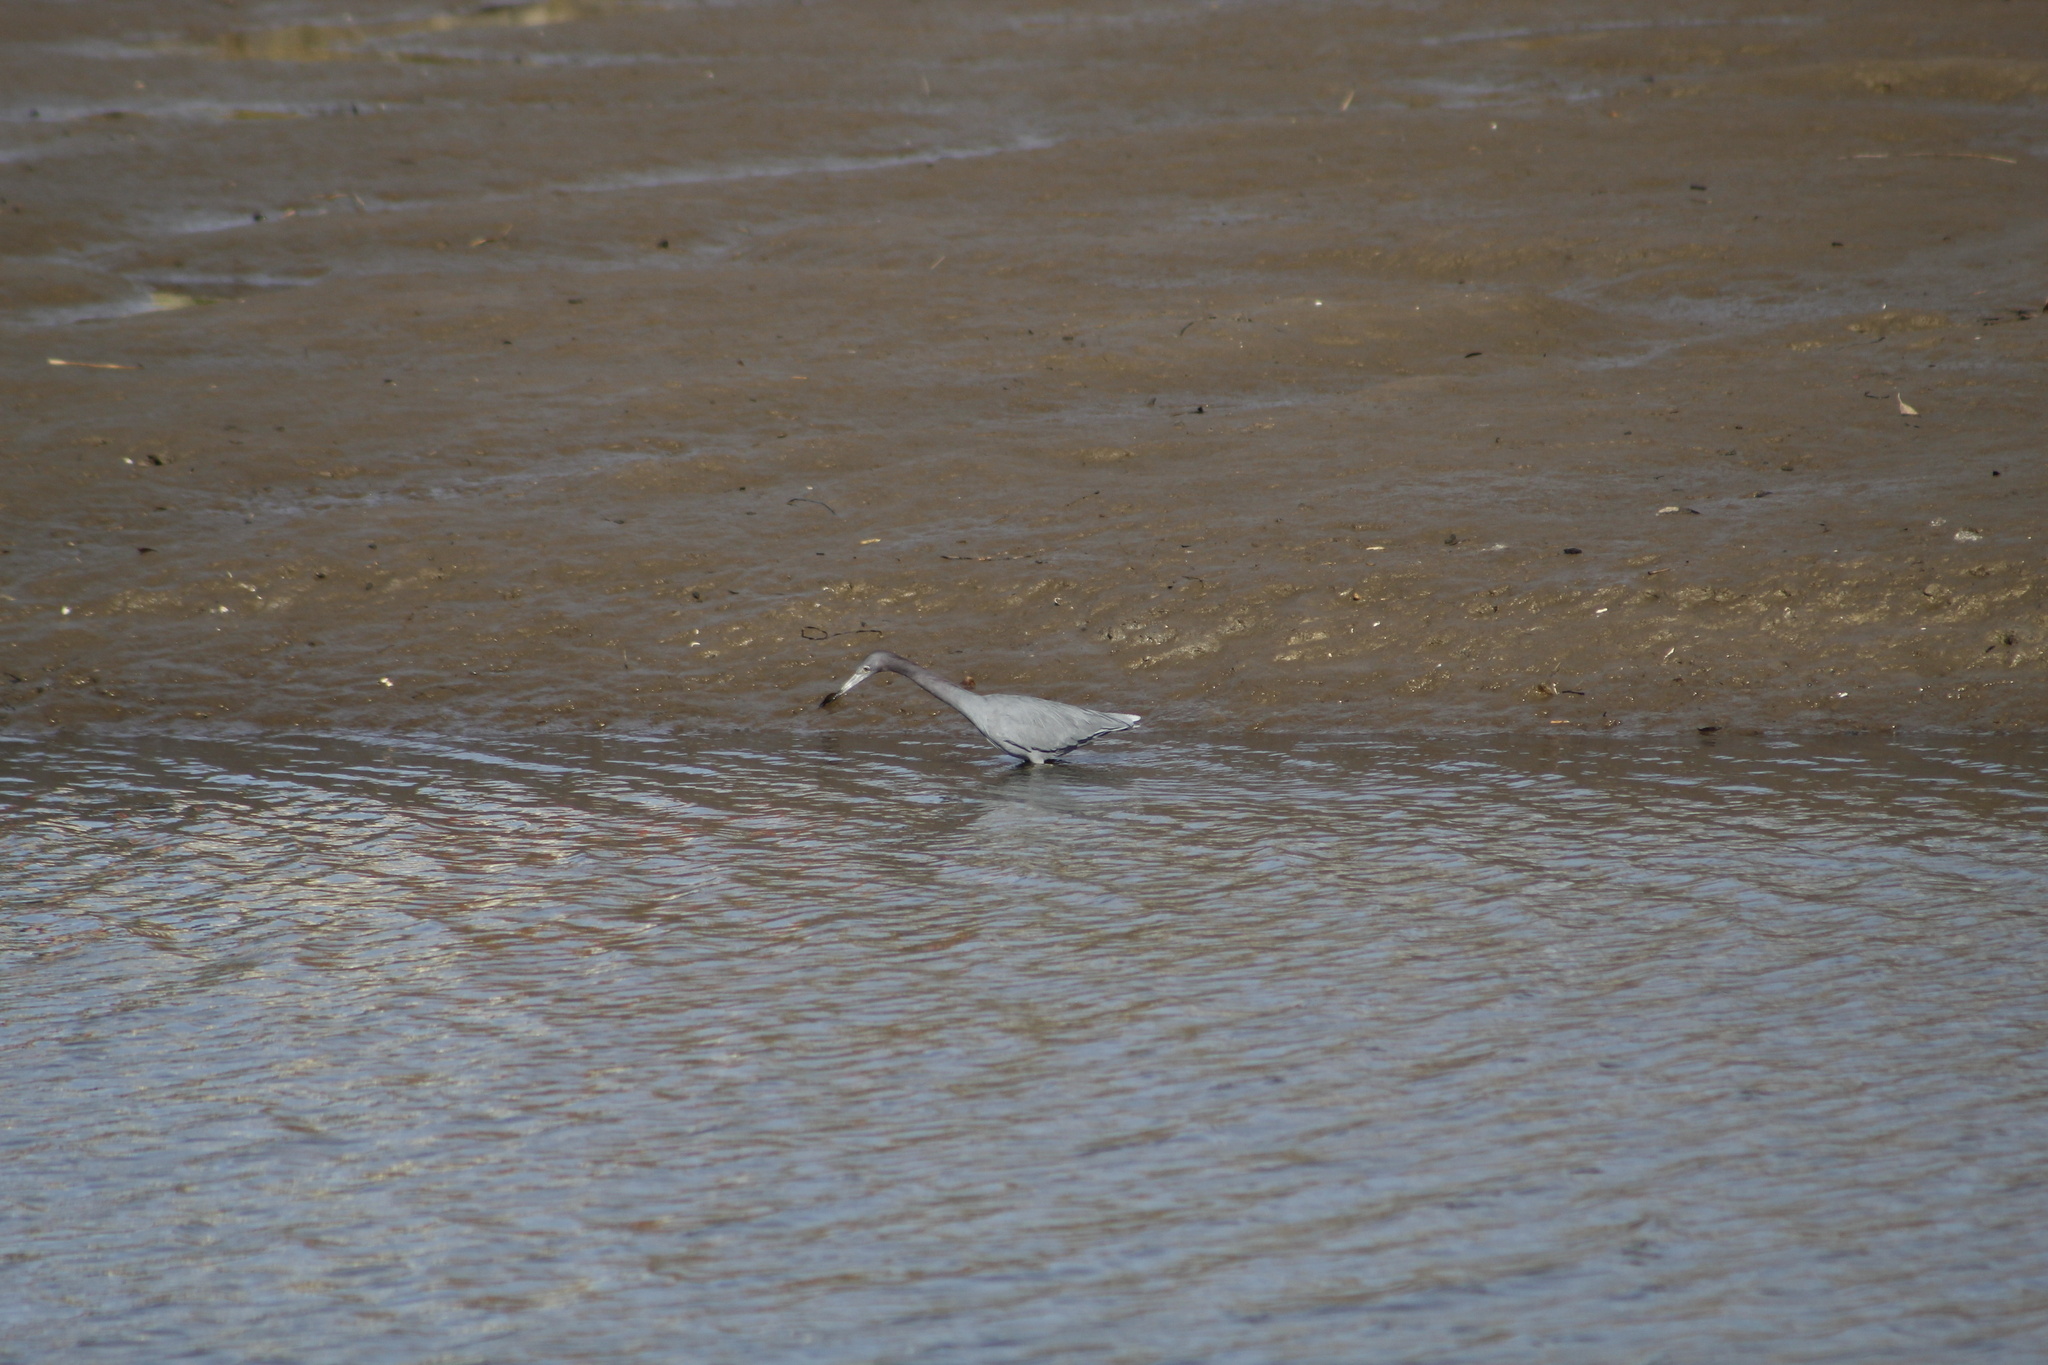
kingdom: Animalia
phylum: Chordata
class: Aves
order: Pelecaniformes
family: Ardeidae
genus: Egretta
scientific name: Egretta caerulea
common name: Little blue heron
